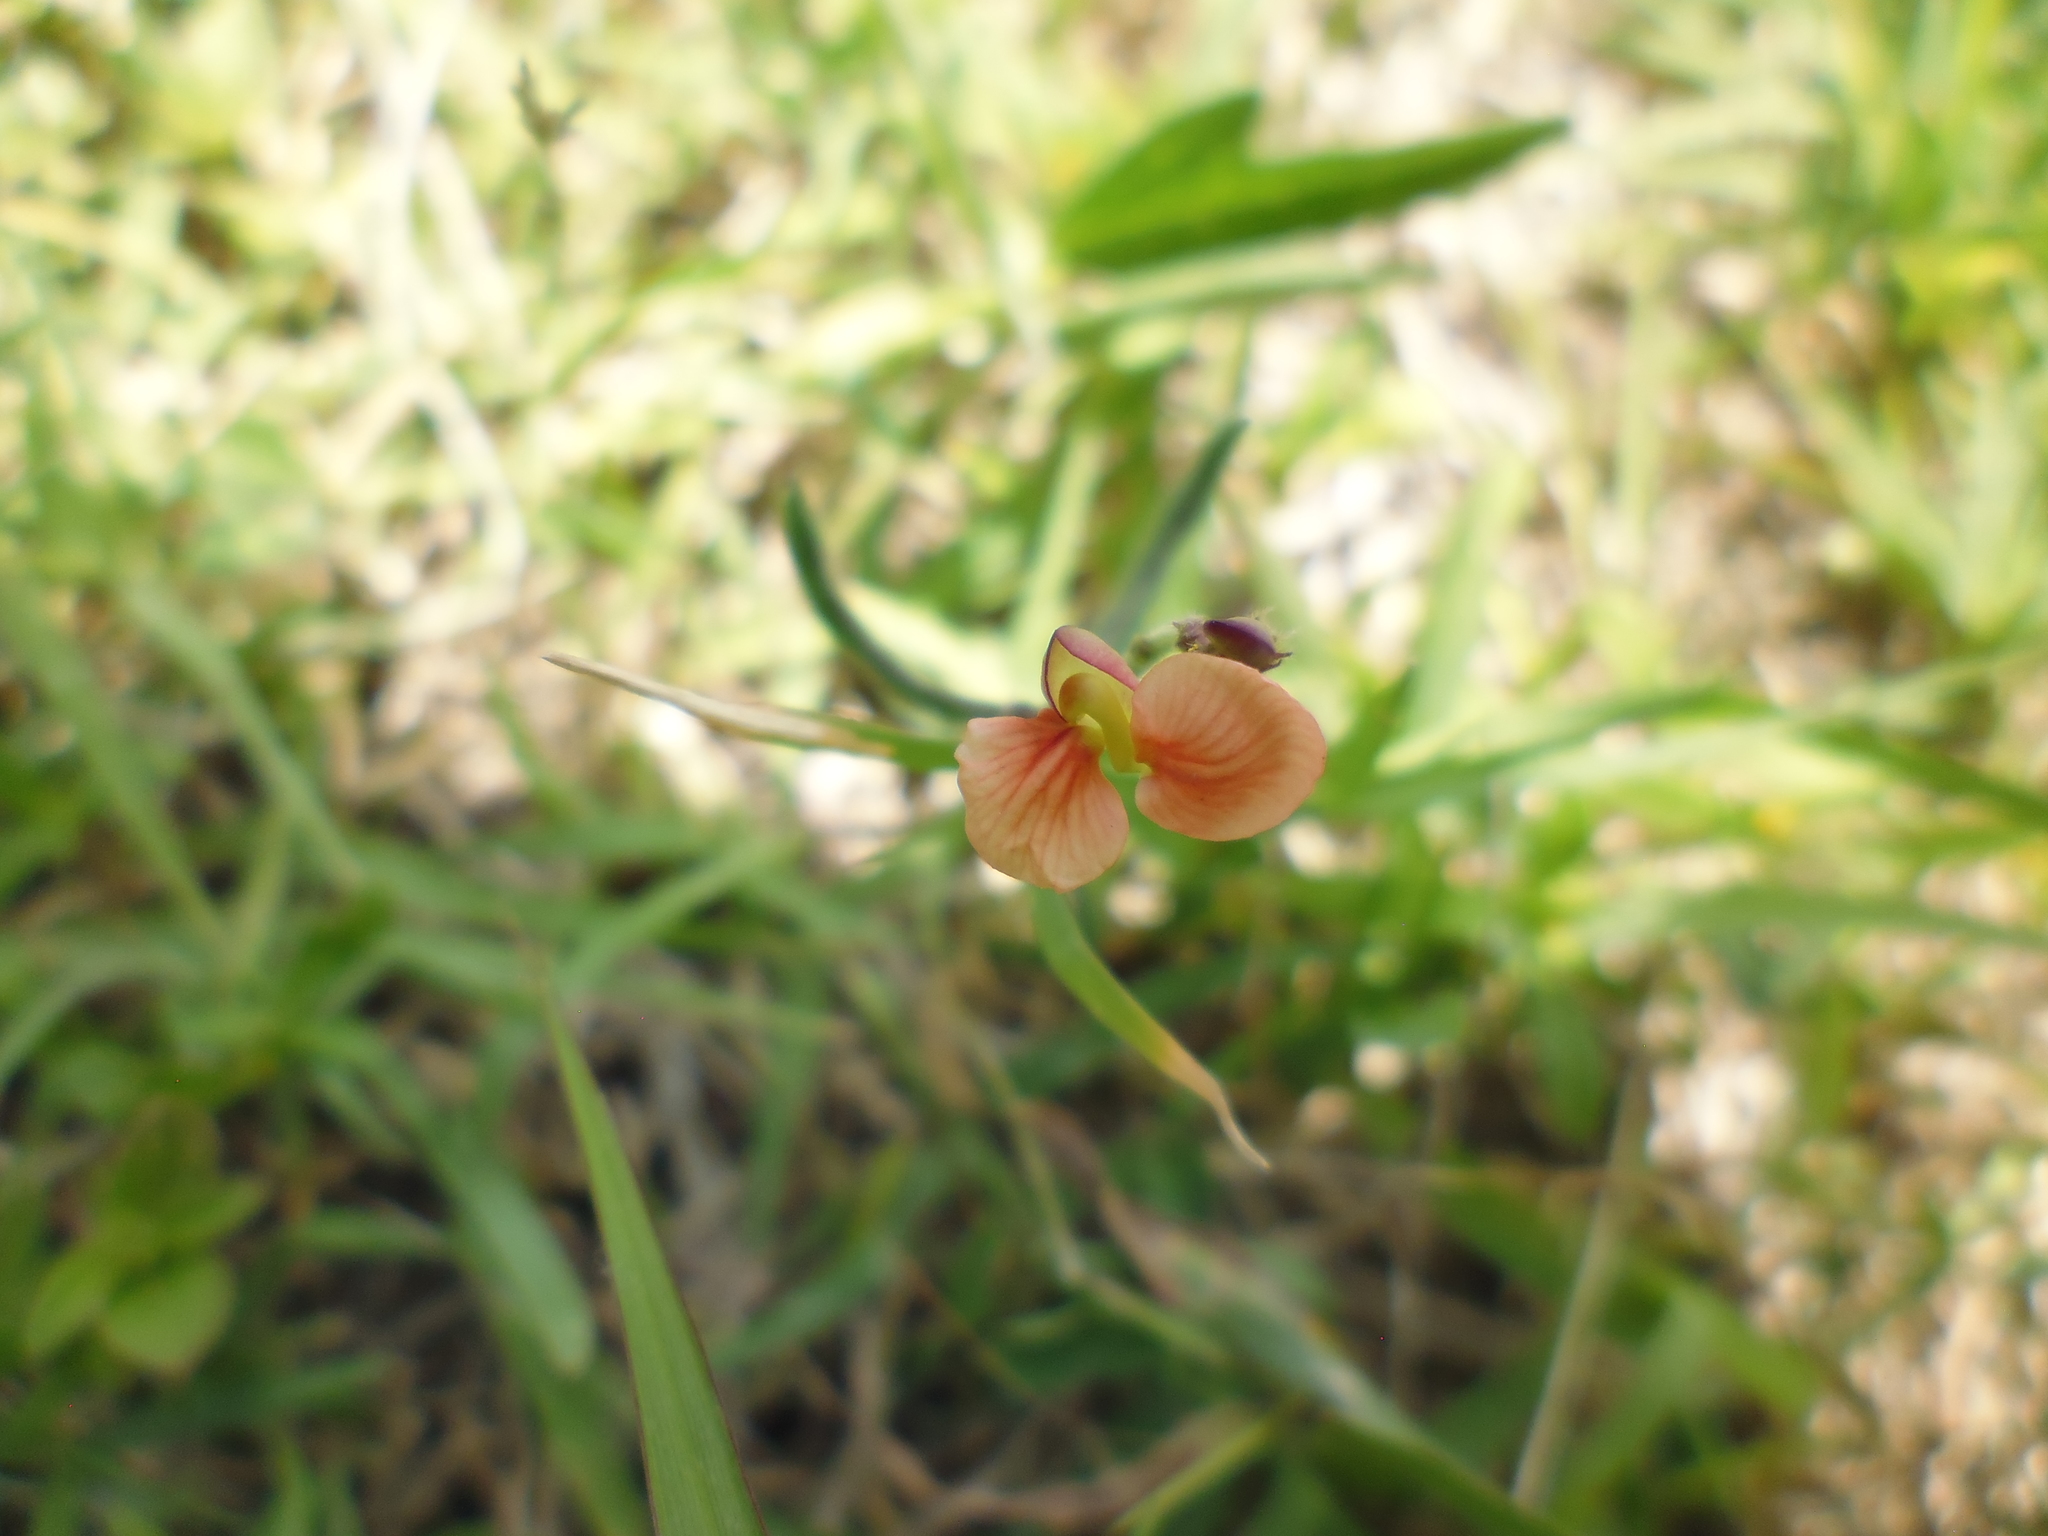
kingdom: Plantae
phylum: Tracheophyta
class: Magnoliopsida
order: Fabales
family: Fabaceae
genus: Macroptilium
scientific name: Macroptilium gibbosifolium
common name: Variableleaf bushbean
